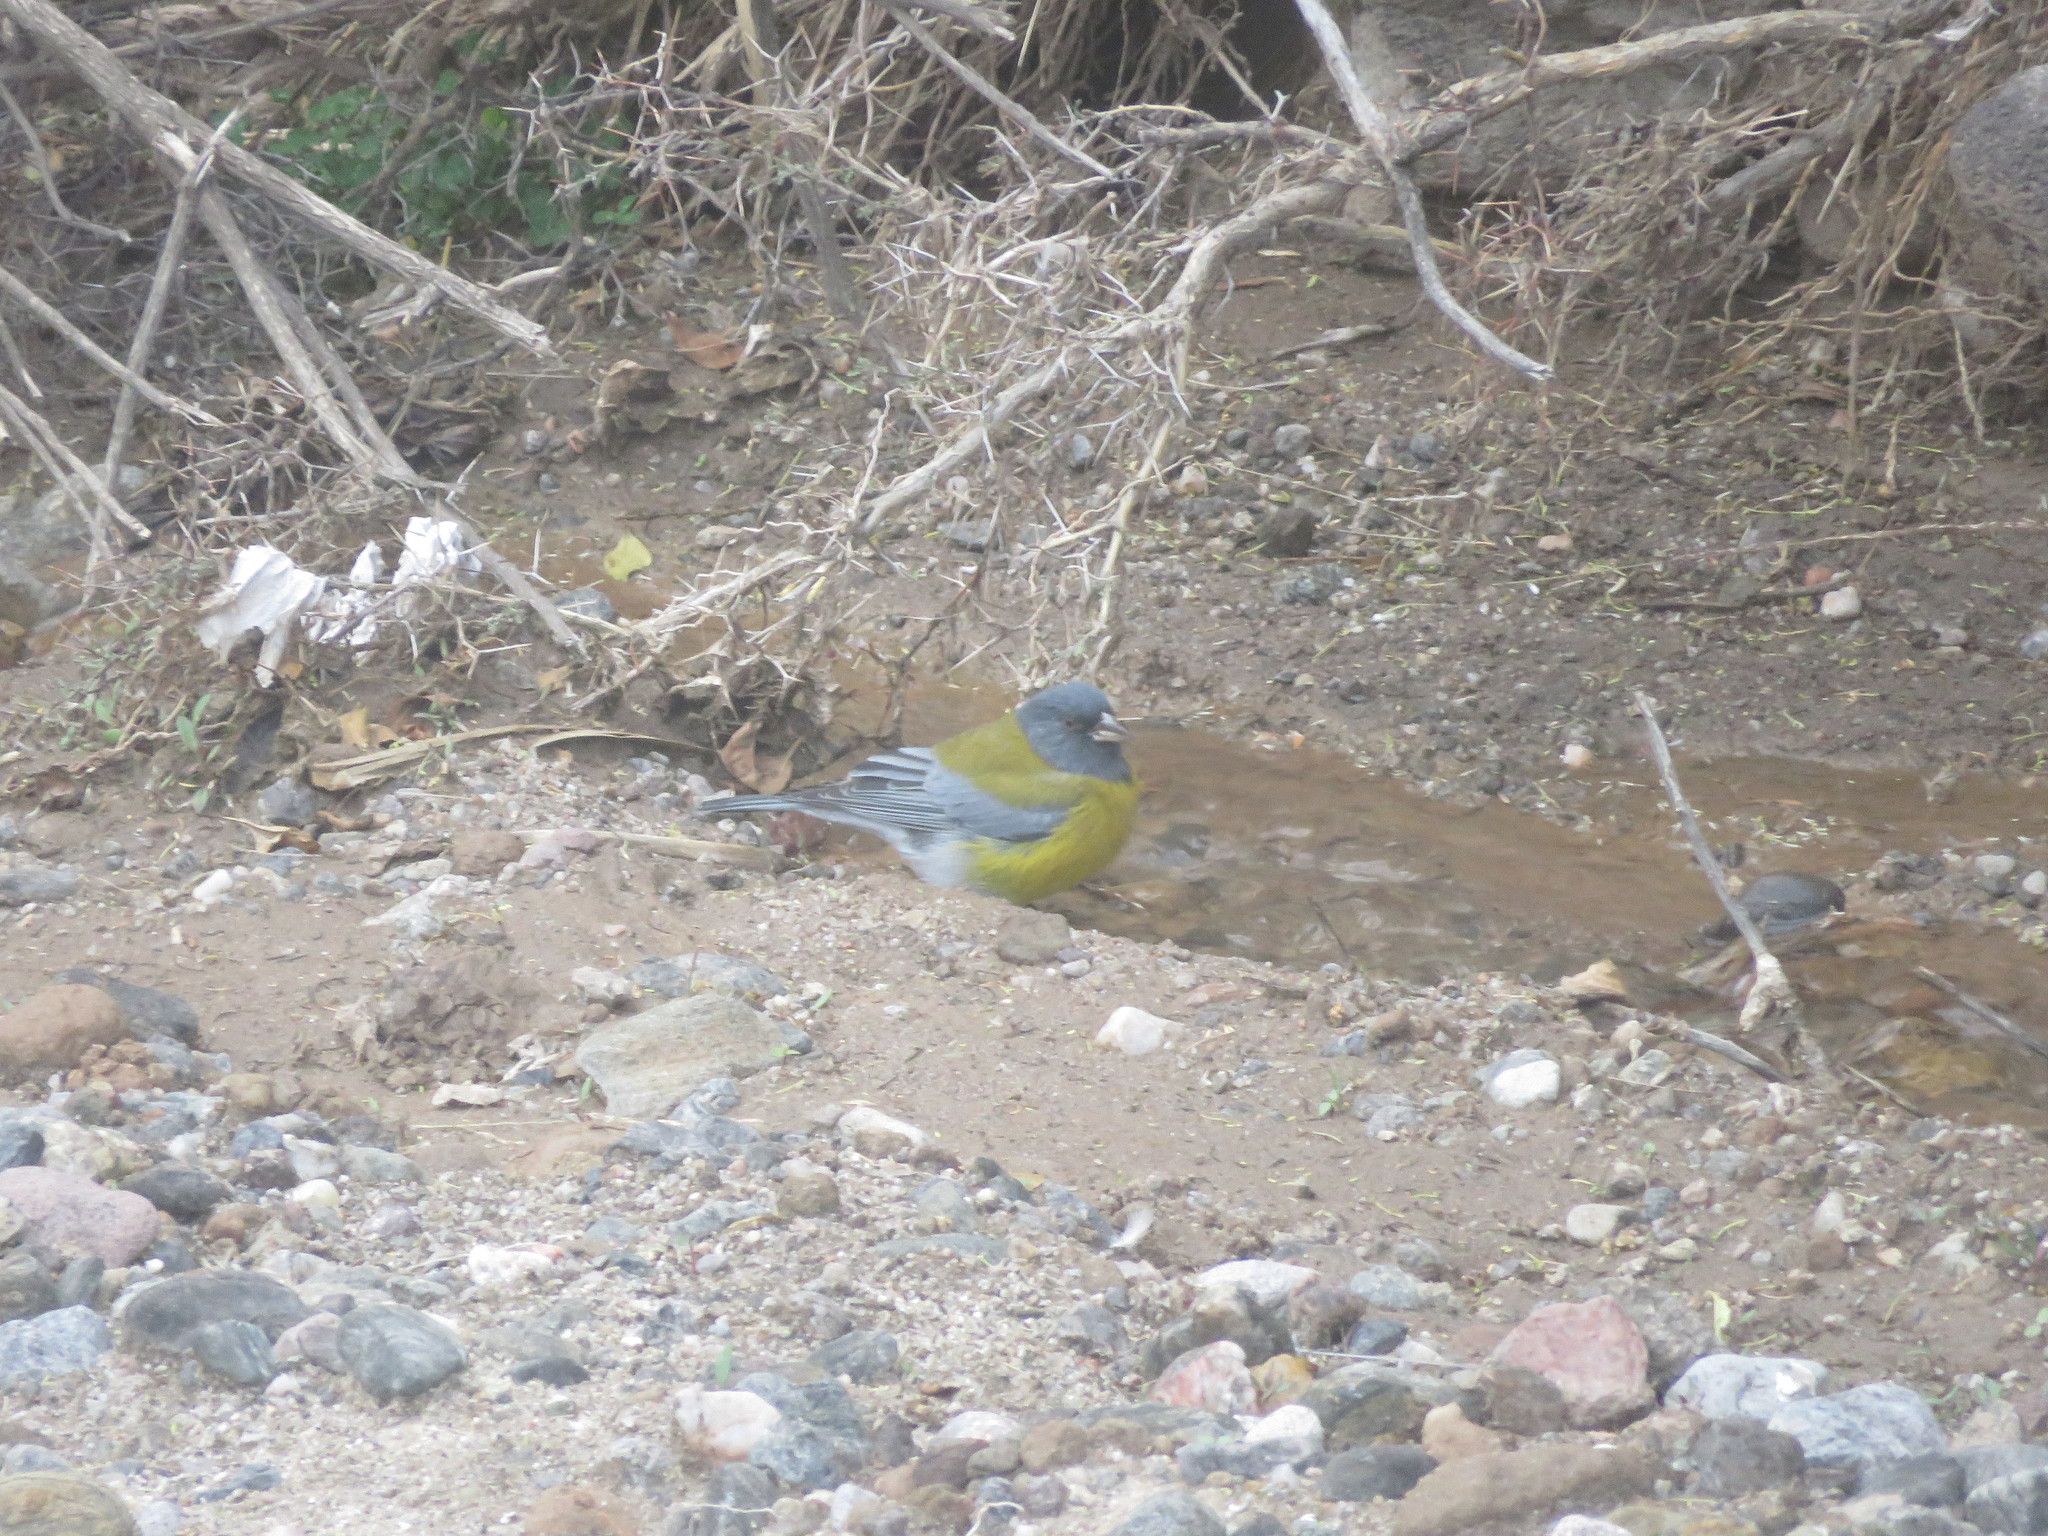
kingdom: Animalia
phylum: Chordata
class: Aves
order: Passeriformes
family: Thraupidae
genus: Phrygilus
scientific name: Phrygilus gayi
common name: Grey-hooded sierra finch
